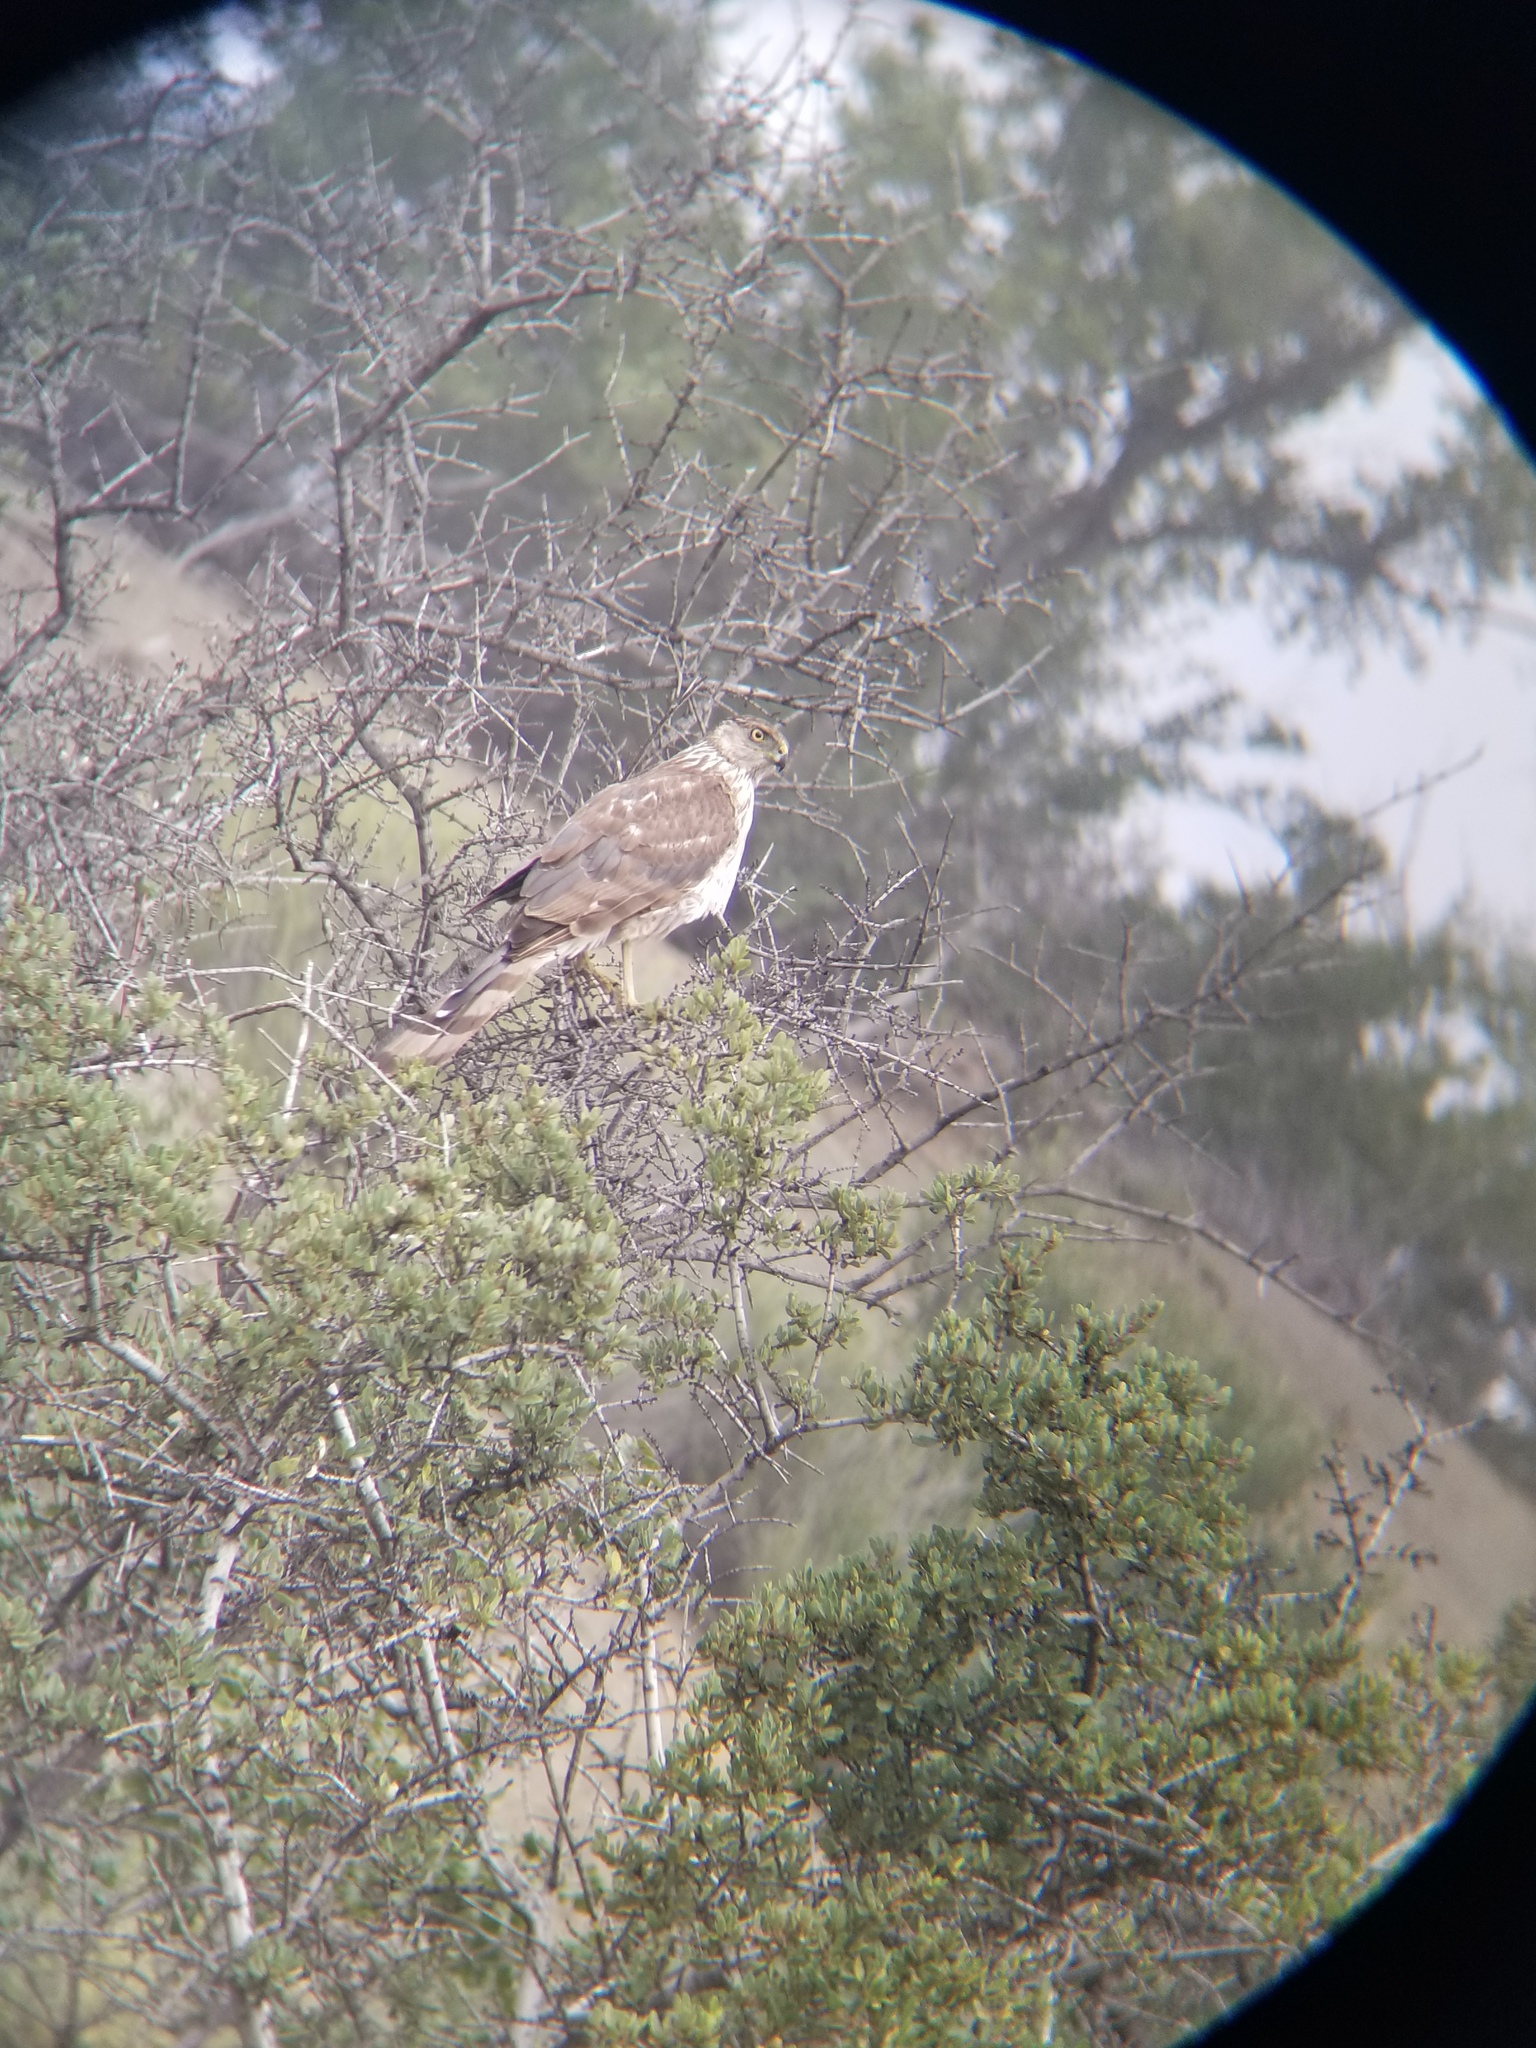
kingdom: Animalia
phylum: Chordata
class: Aves
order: Accipitriformes
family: Accipitridae
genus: Accipiter
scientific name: Accipiter cooperii
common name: Cooper's hawk
